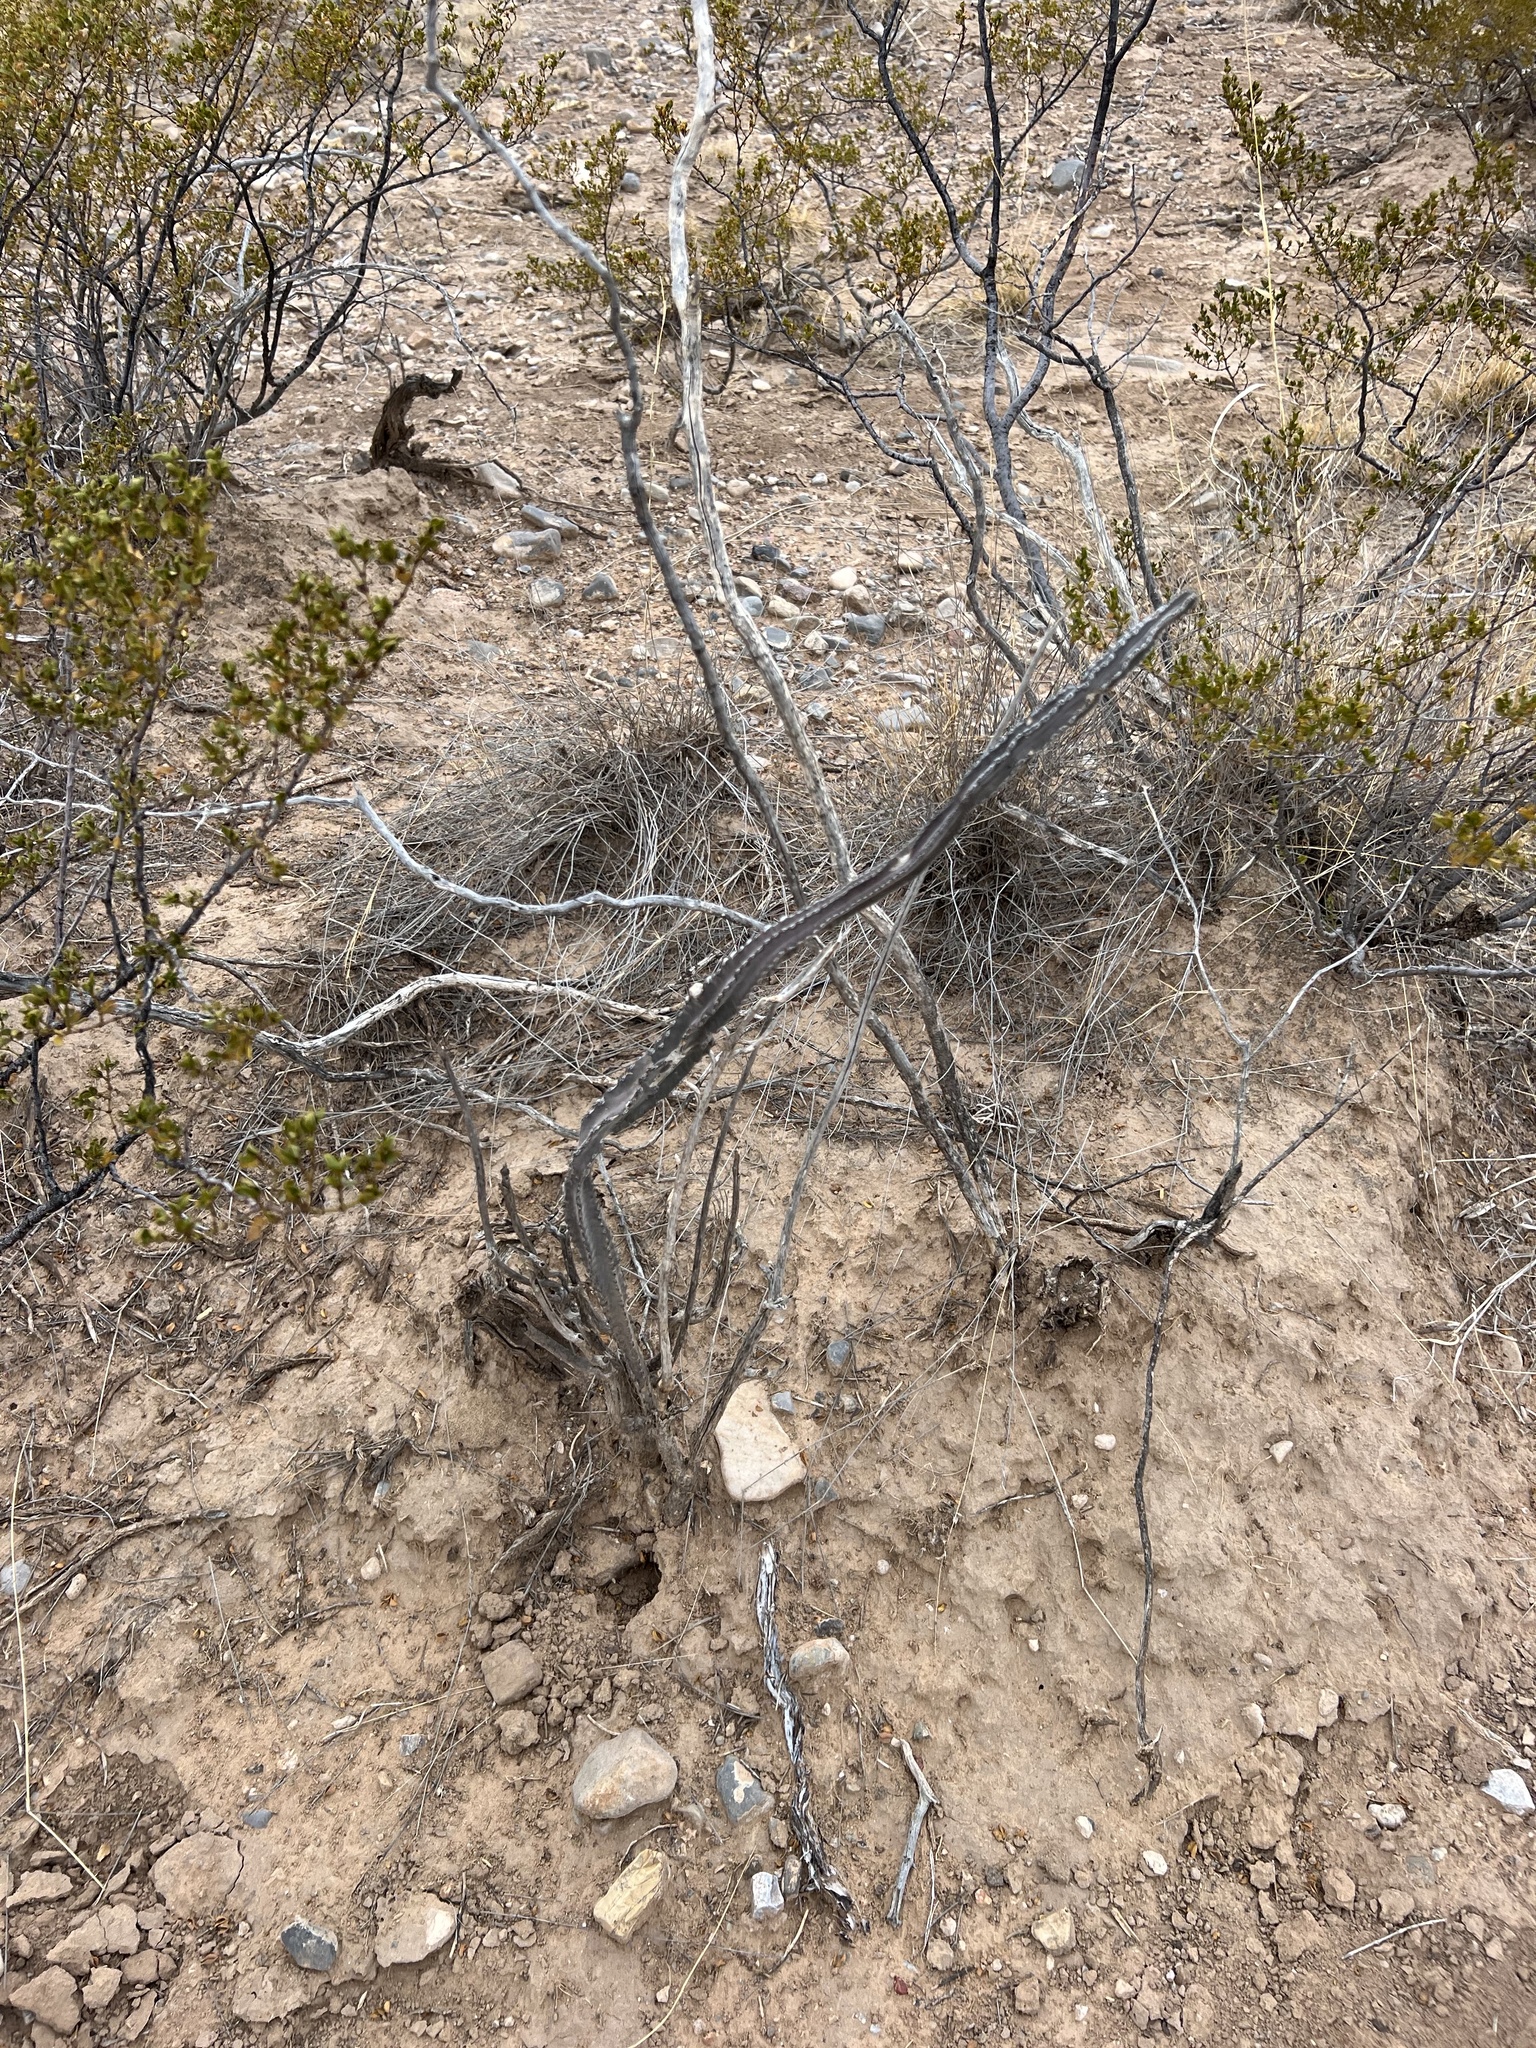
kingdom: Plantae
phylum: Tracheophyta
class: Magnoliopsida
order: Caryophyllales
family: Cactaceae
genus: Peniocereus
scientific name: Peniocereus greggii
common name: Desert night-blooming cereus
